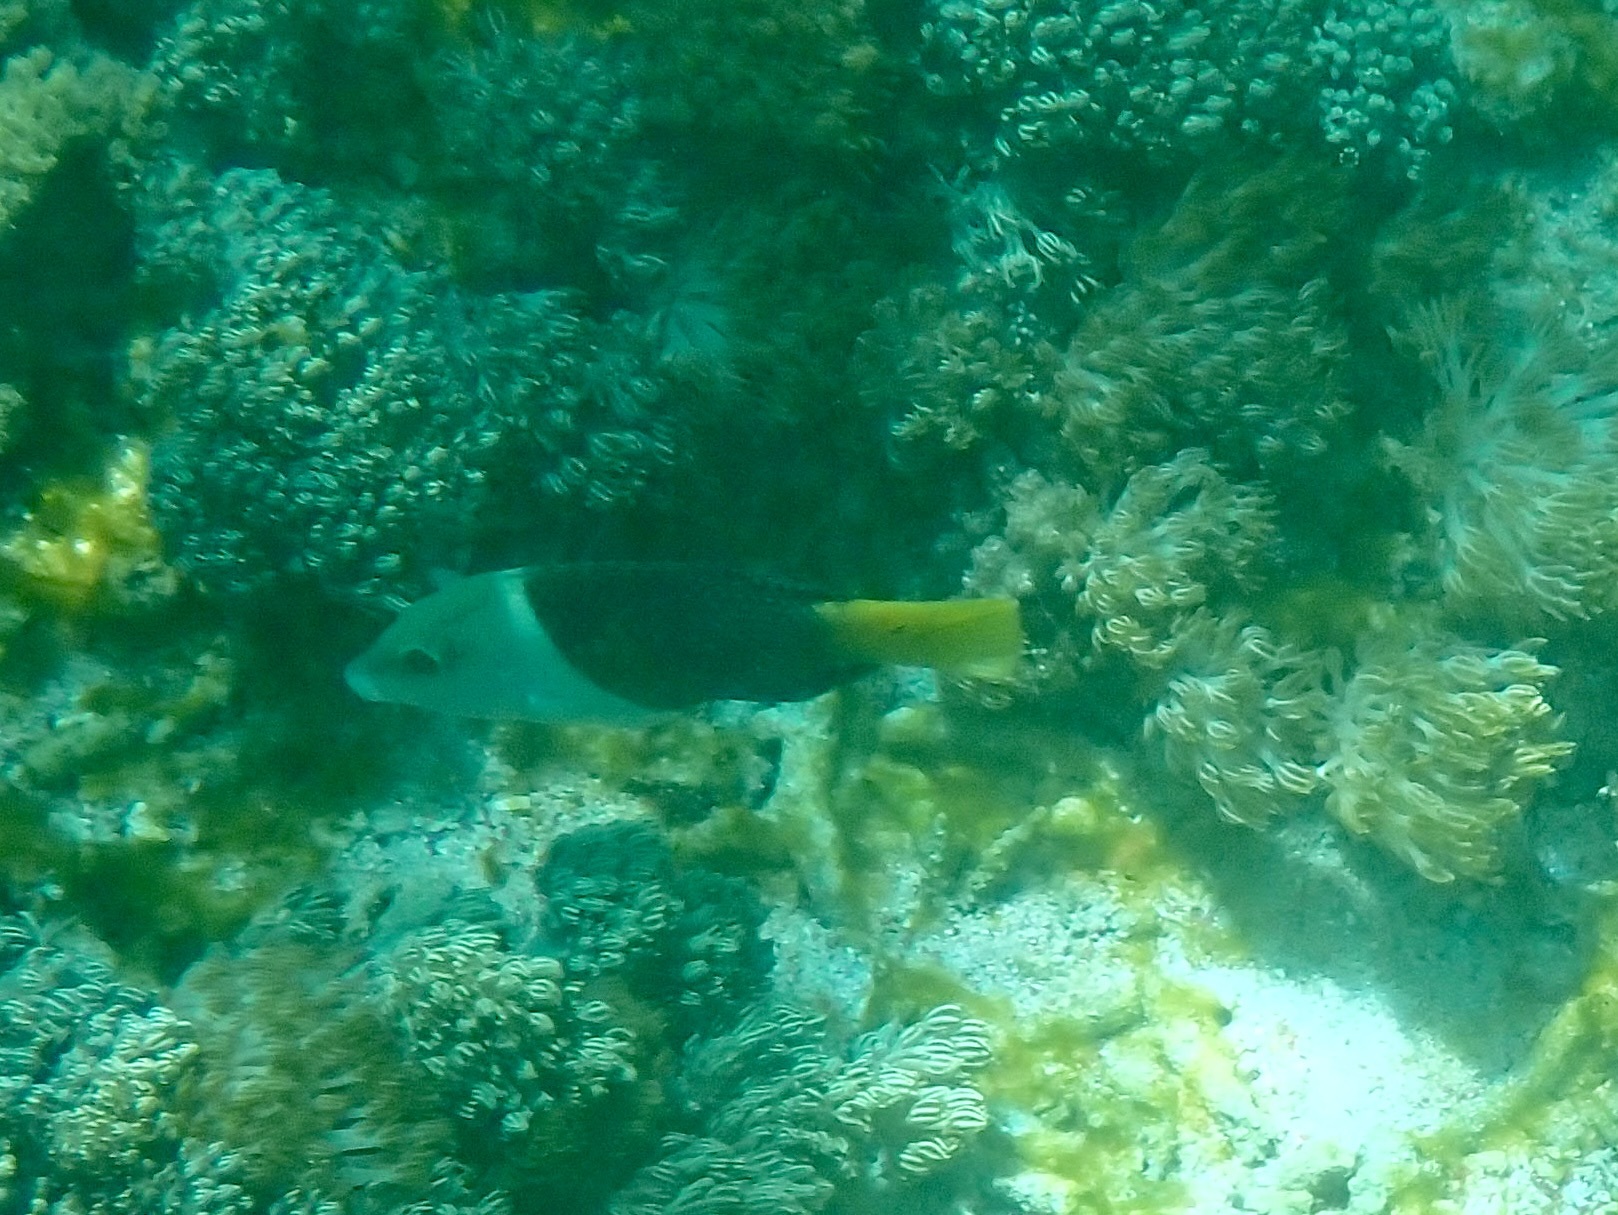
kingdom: Animalia
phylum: Chordata
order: Perciformes
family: Labridae
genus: Hemigymnus
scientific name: Hemigymnus melapterus
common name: Blackeye thicklip
